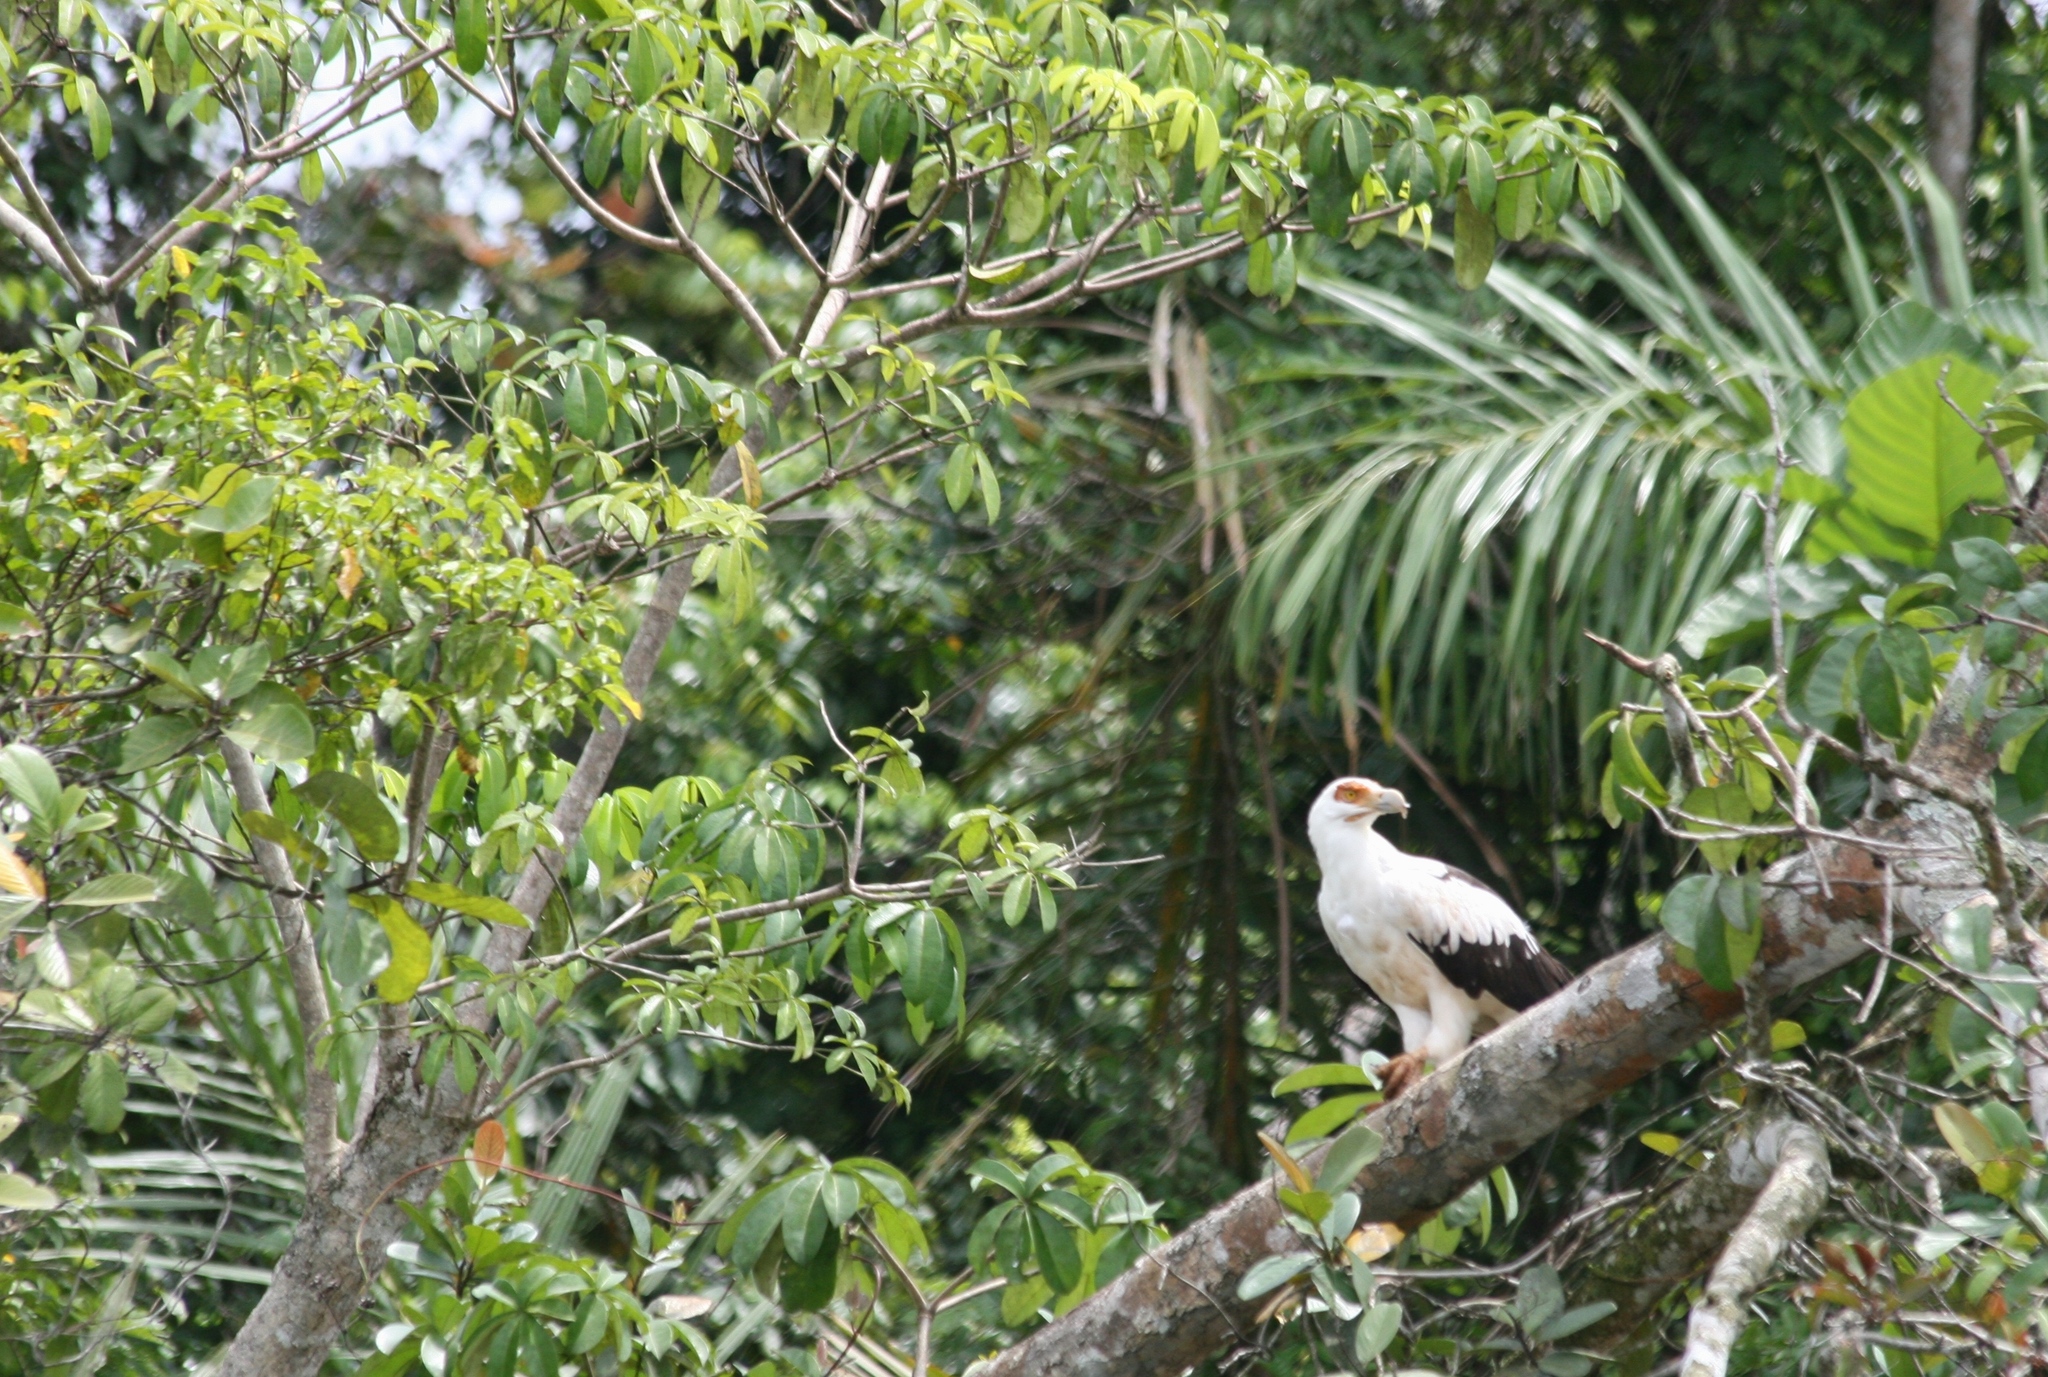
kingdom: Animalia
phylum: Chordata
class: Aves
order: Accipitriformes
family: Accipitridae
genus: Gypohierax
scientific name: Gypohierax angolensis
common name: Palm-nut vulture
